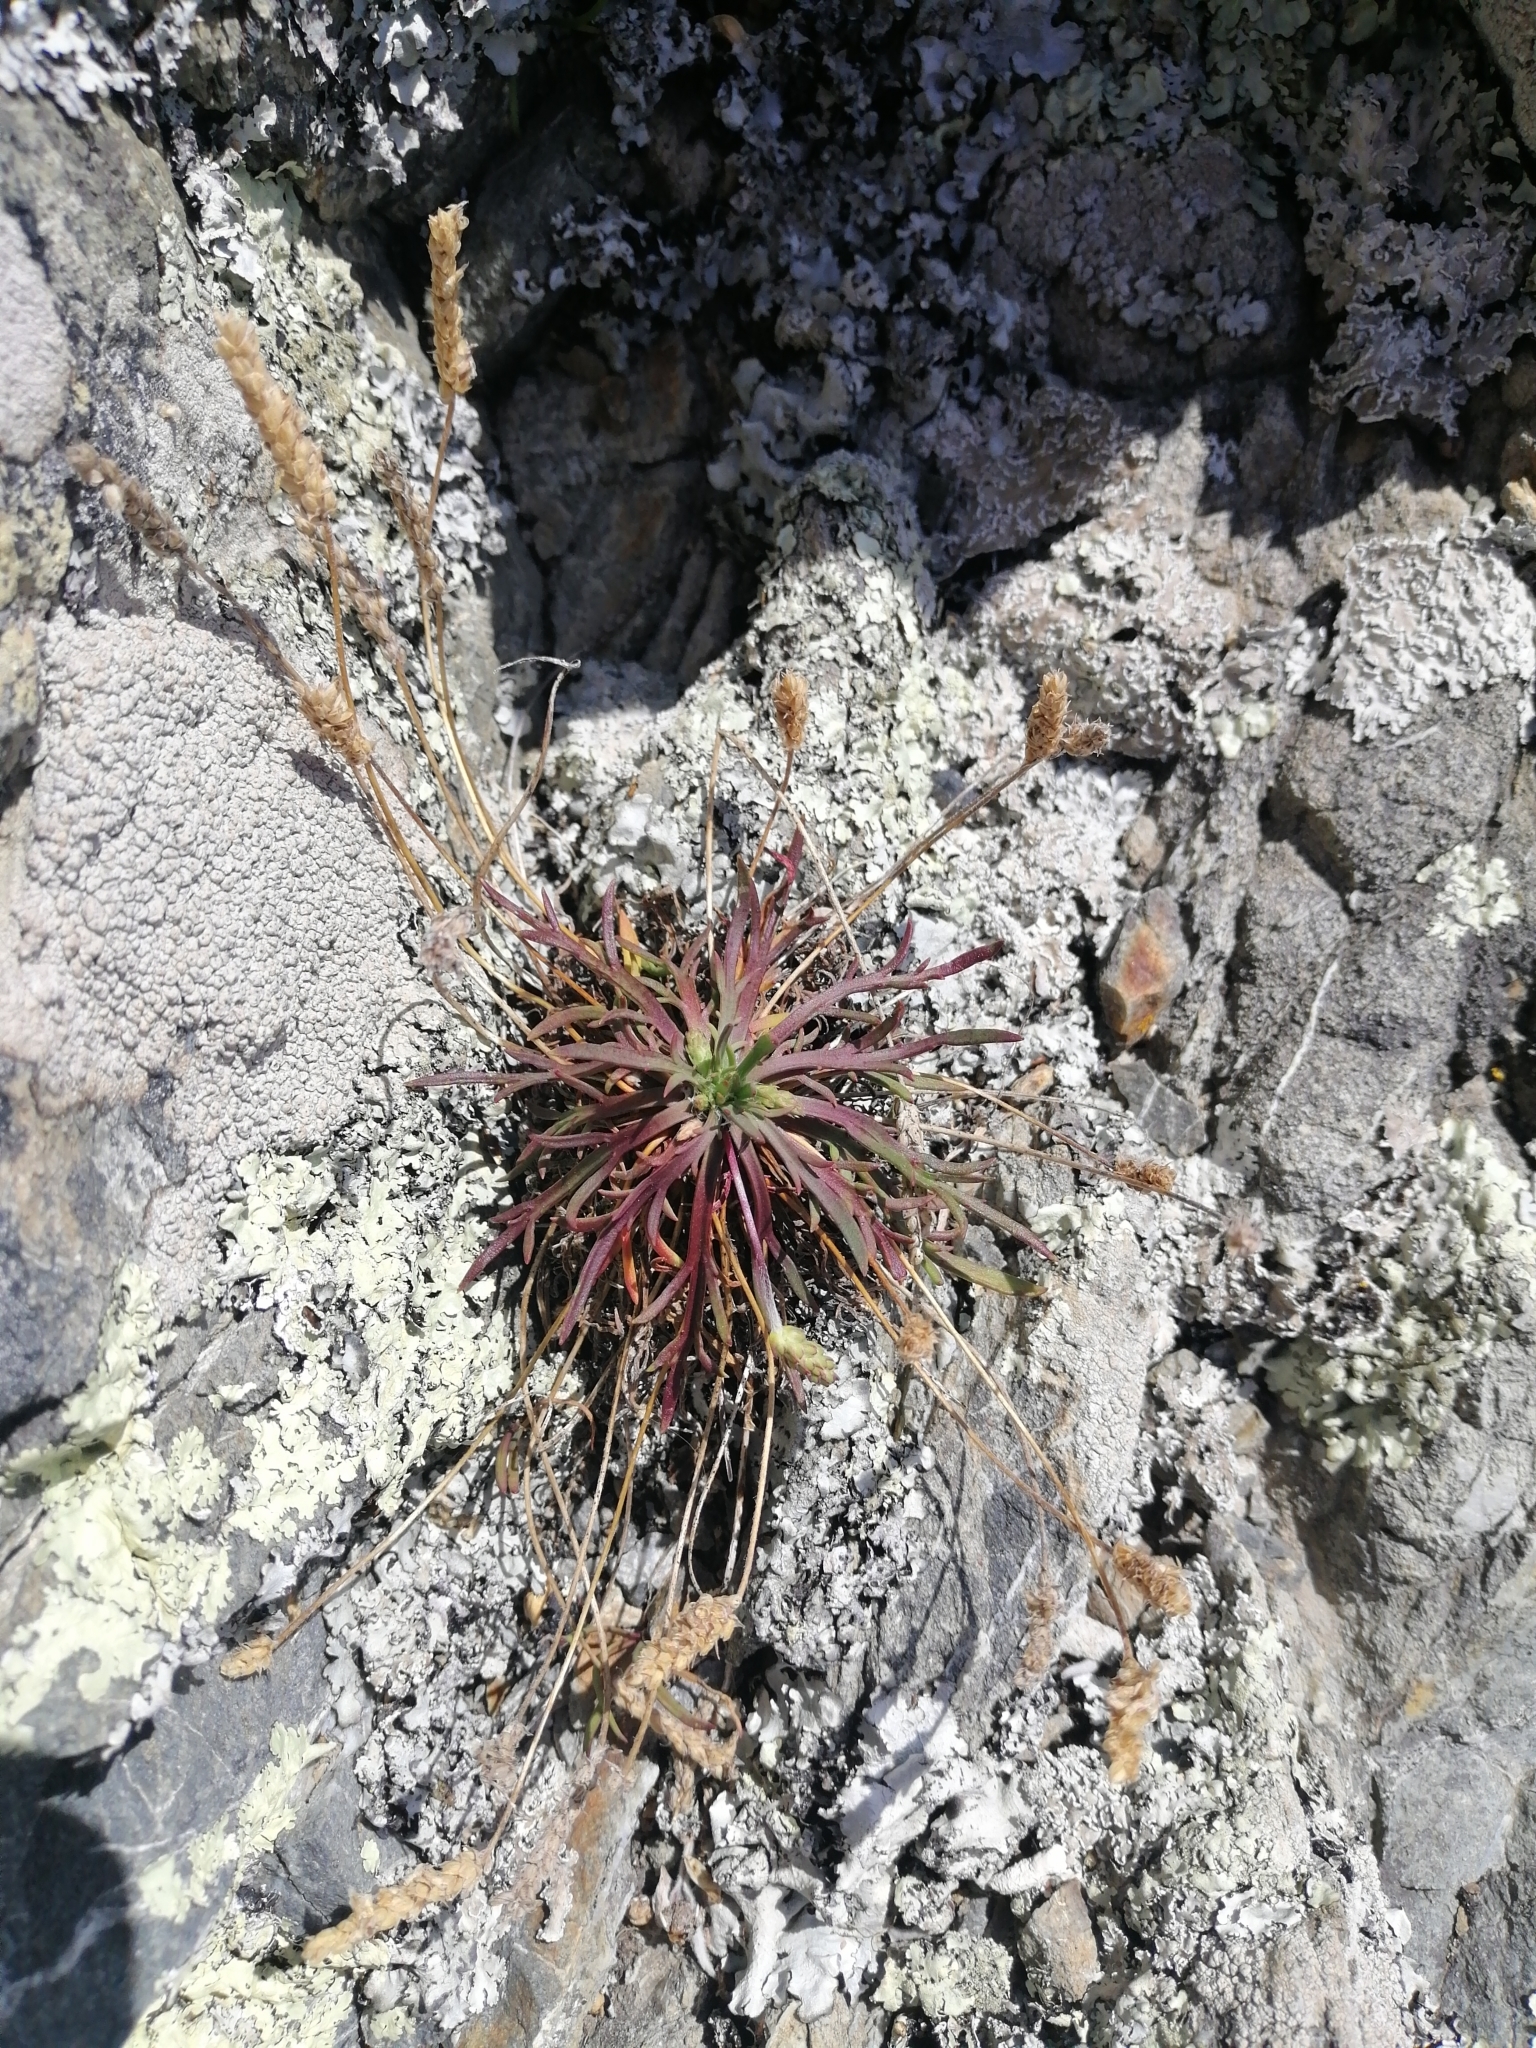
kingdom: Plantae
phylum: Tracheophyta
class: Magnoliopsida
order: Lamiales
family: Plantaginaceae
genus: Plantago
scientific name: Plantago coronopus
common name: Buck's-horn plantain
